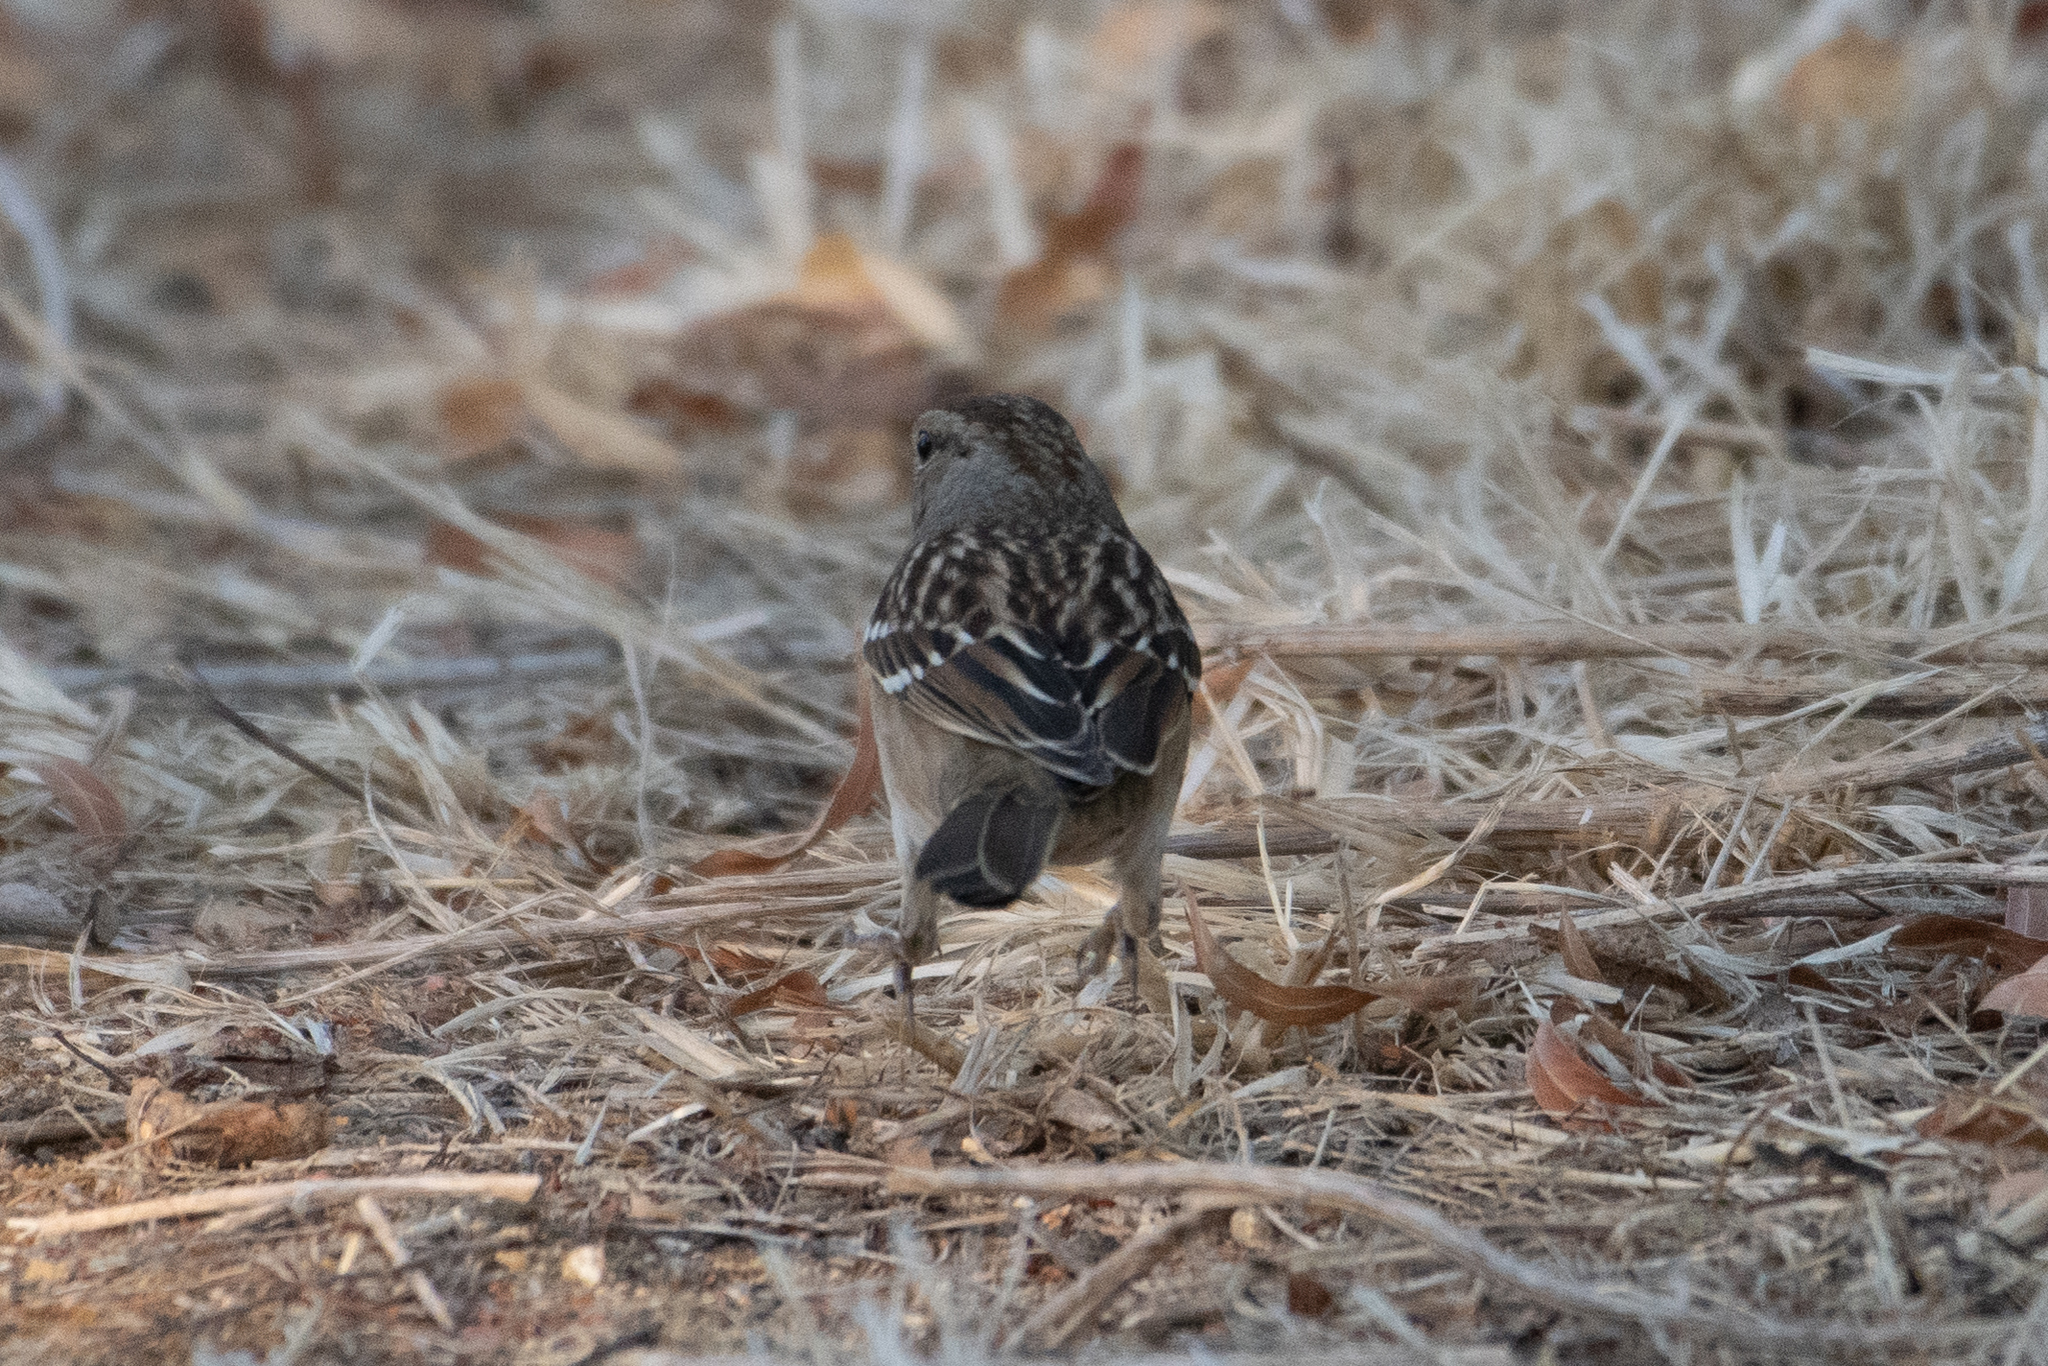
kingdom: Animalia
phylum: Chordata
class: Aves
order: Passeriformes
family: Passerellidae
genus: Zonotrichia
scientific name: Zonotrichia atricapilla
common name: Golden-crowned sparrow
